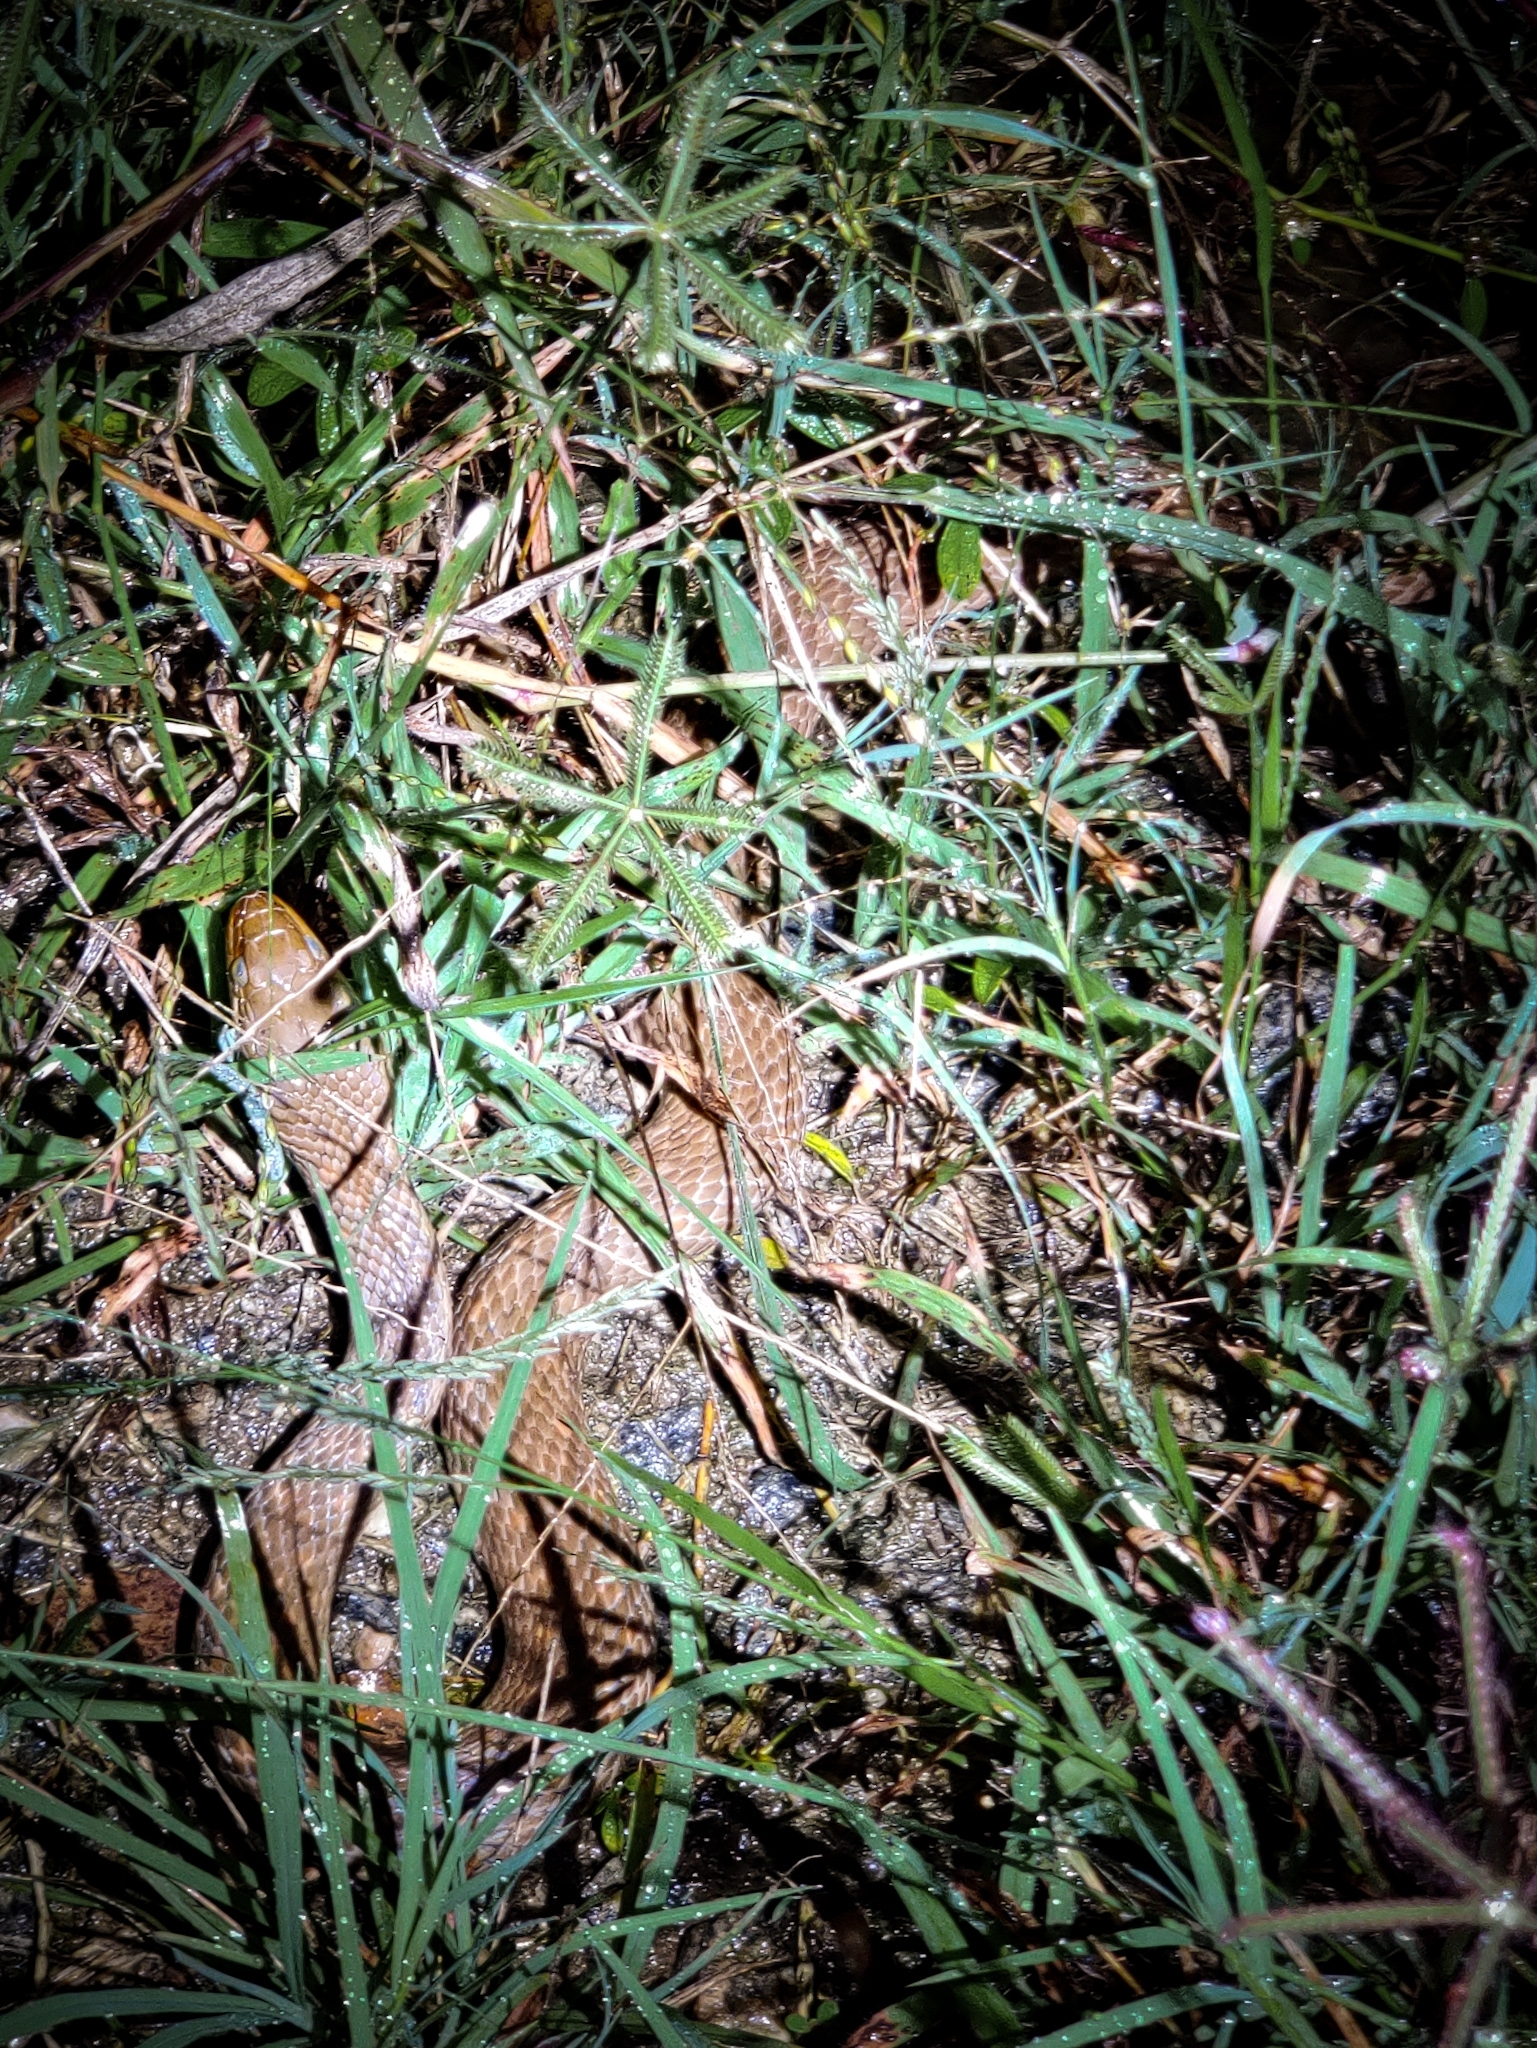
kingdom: Animalia
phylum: Chordata
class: Squamata
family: Colubridae
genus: Fowlea
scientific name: Fowlea piscator
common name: Asiatic water snake
